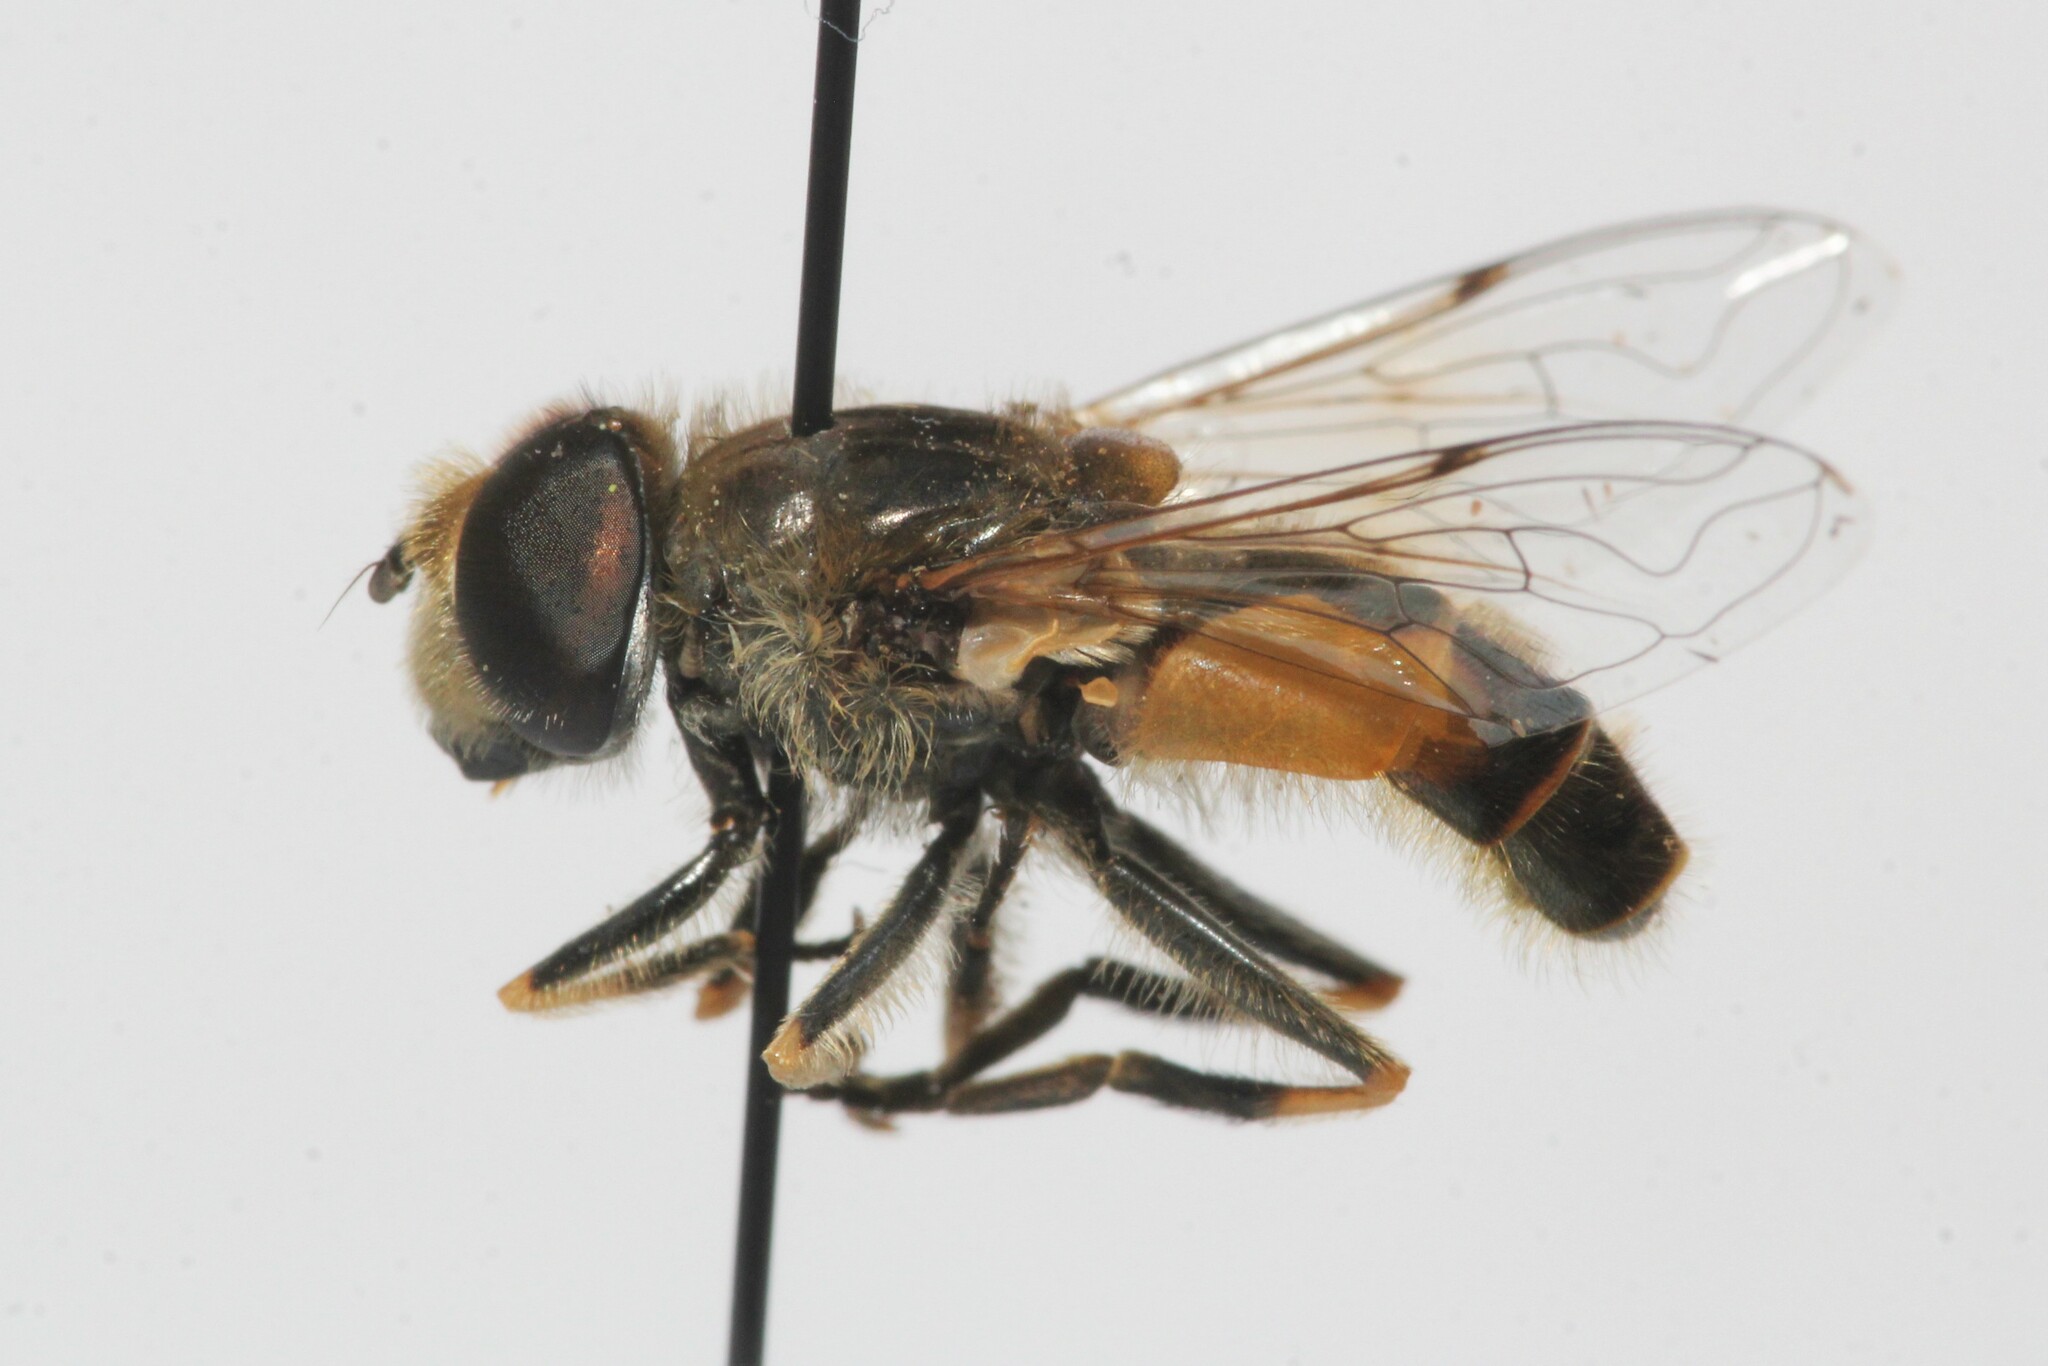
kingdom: Animalia
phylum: Arthropoda
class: Insecta
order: Diptera
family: Syrphidae
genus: Eristalis
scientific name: Eristalis arbustorum
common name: Hover fly
